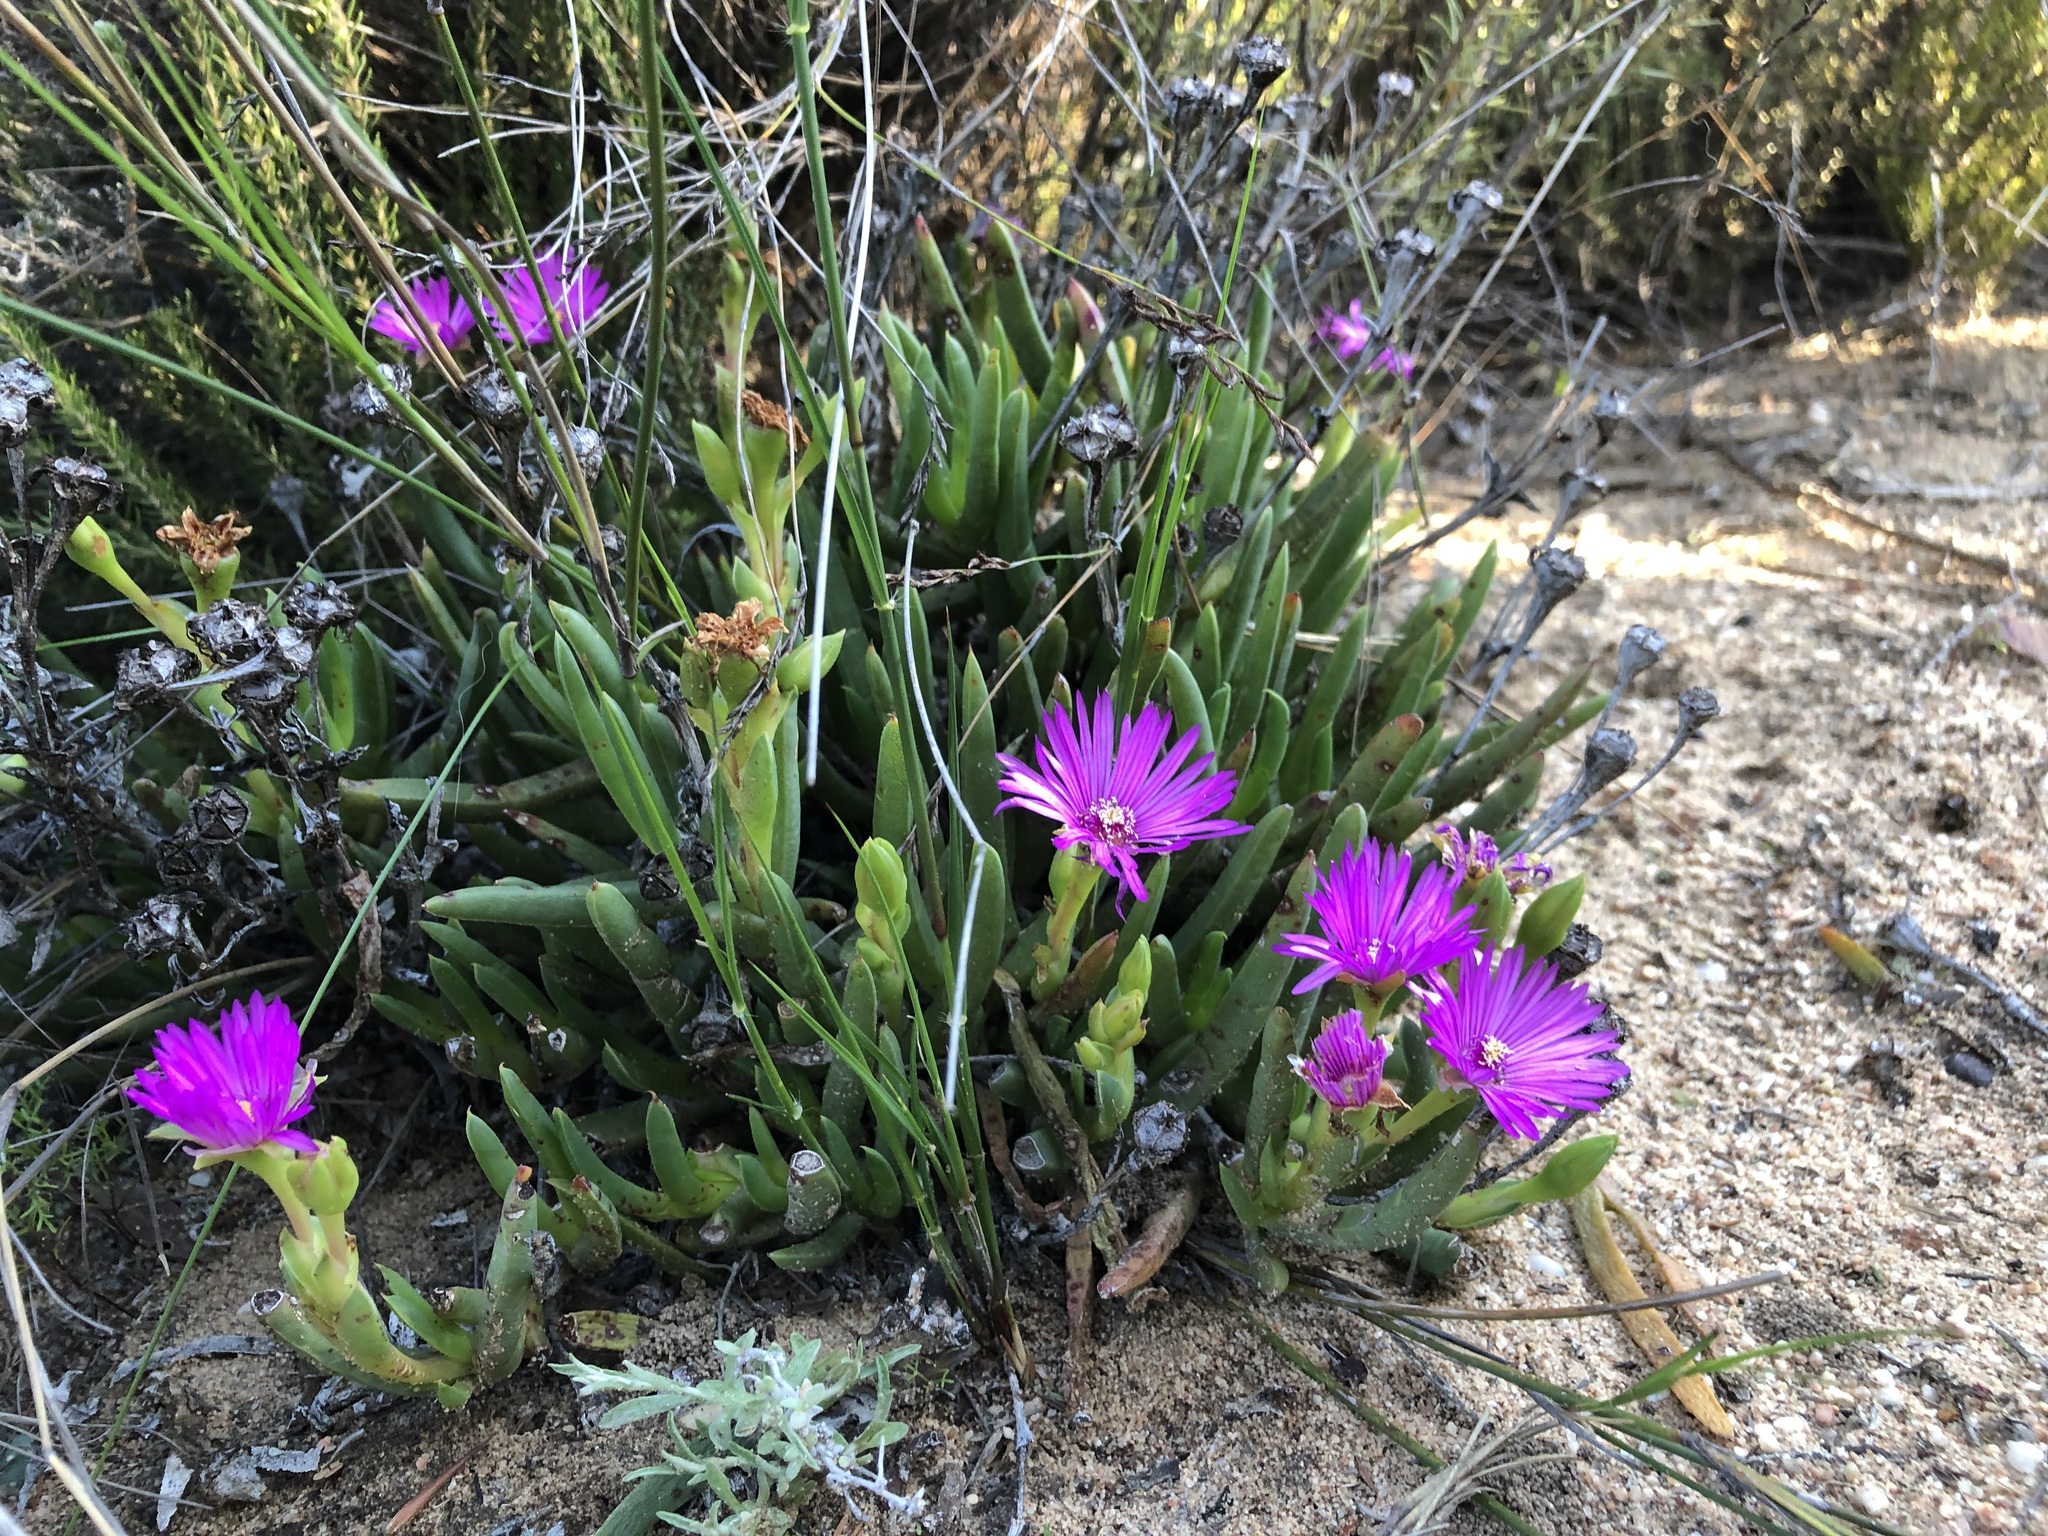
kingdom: Plantae
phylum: Tracheophyta
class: Magnoliopsida
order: Caryophyllales
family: Aizoaceae
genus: Ruschia
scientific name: Ruschia tardissima
